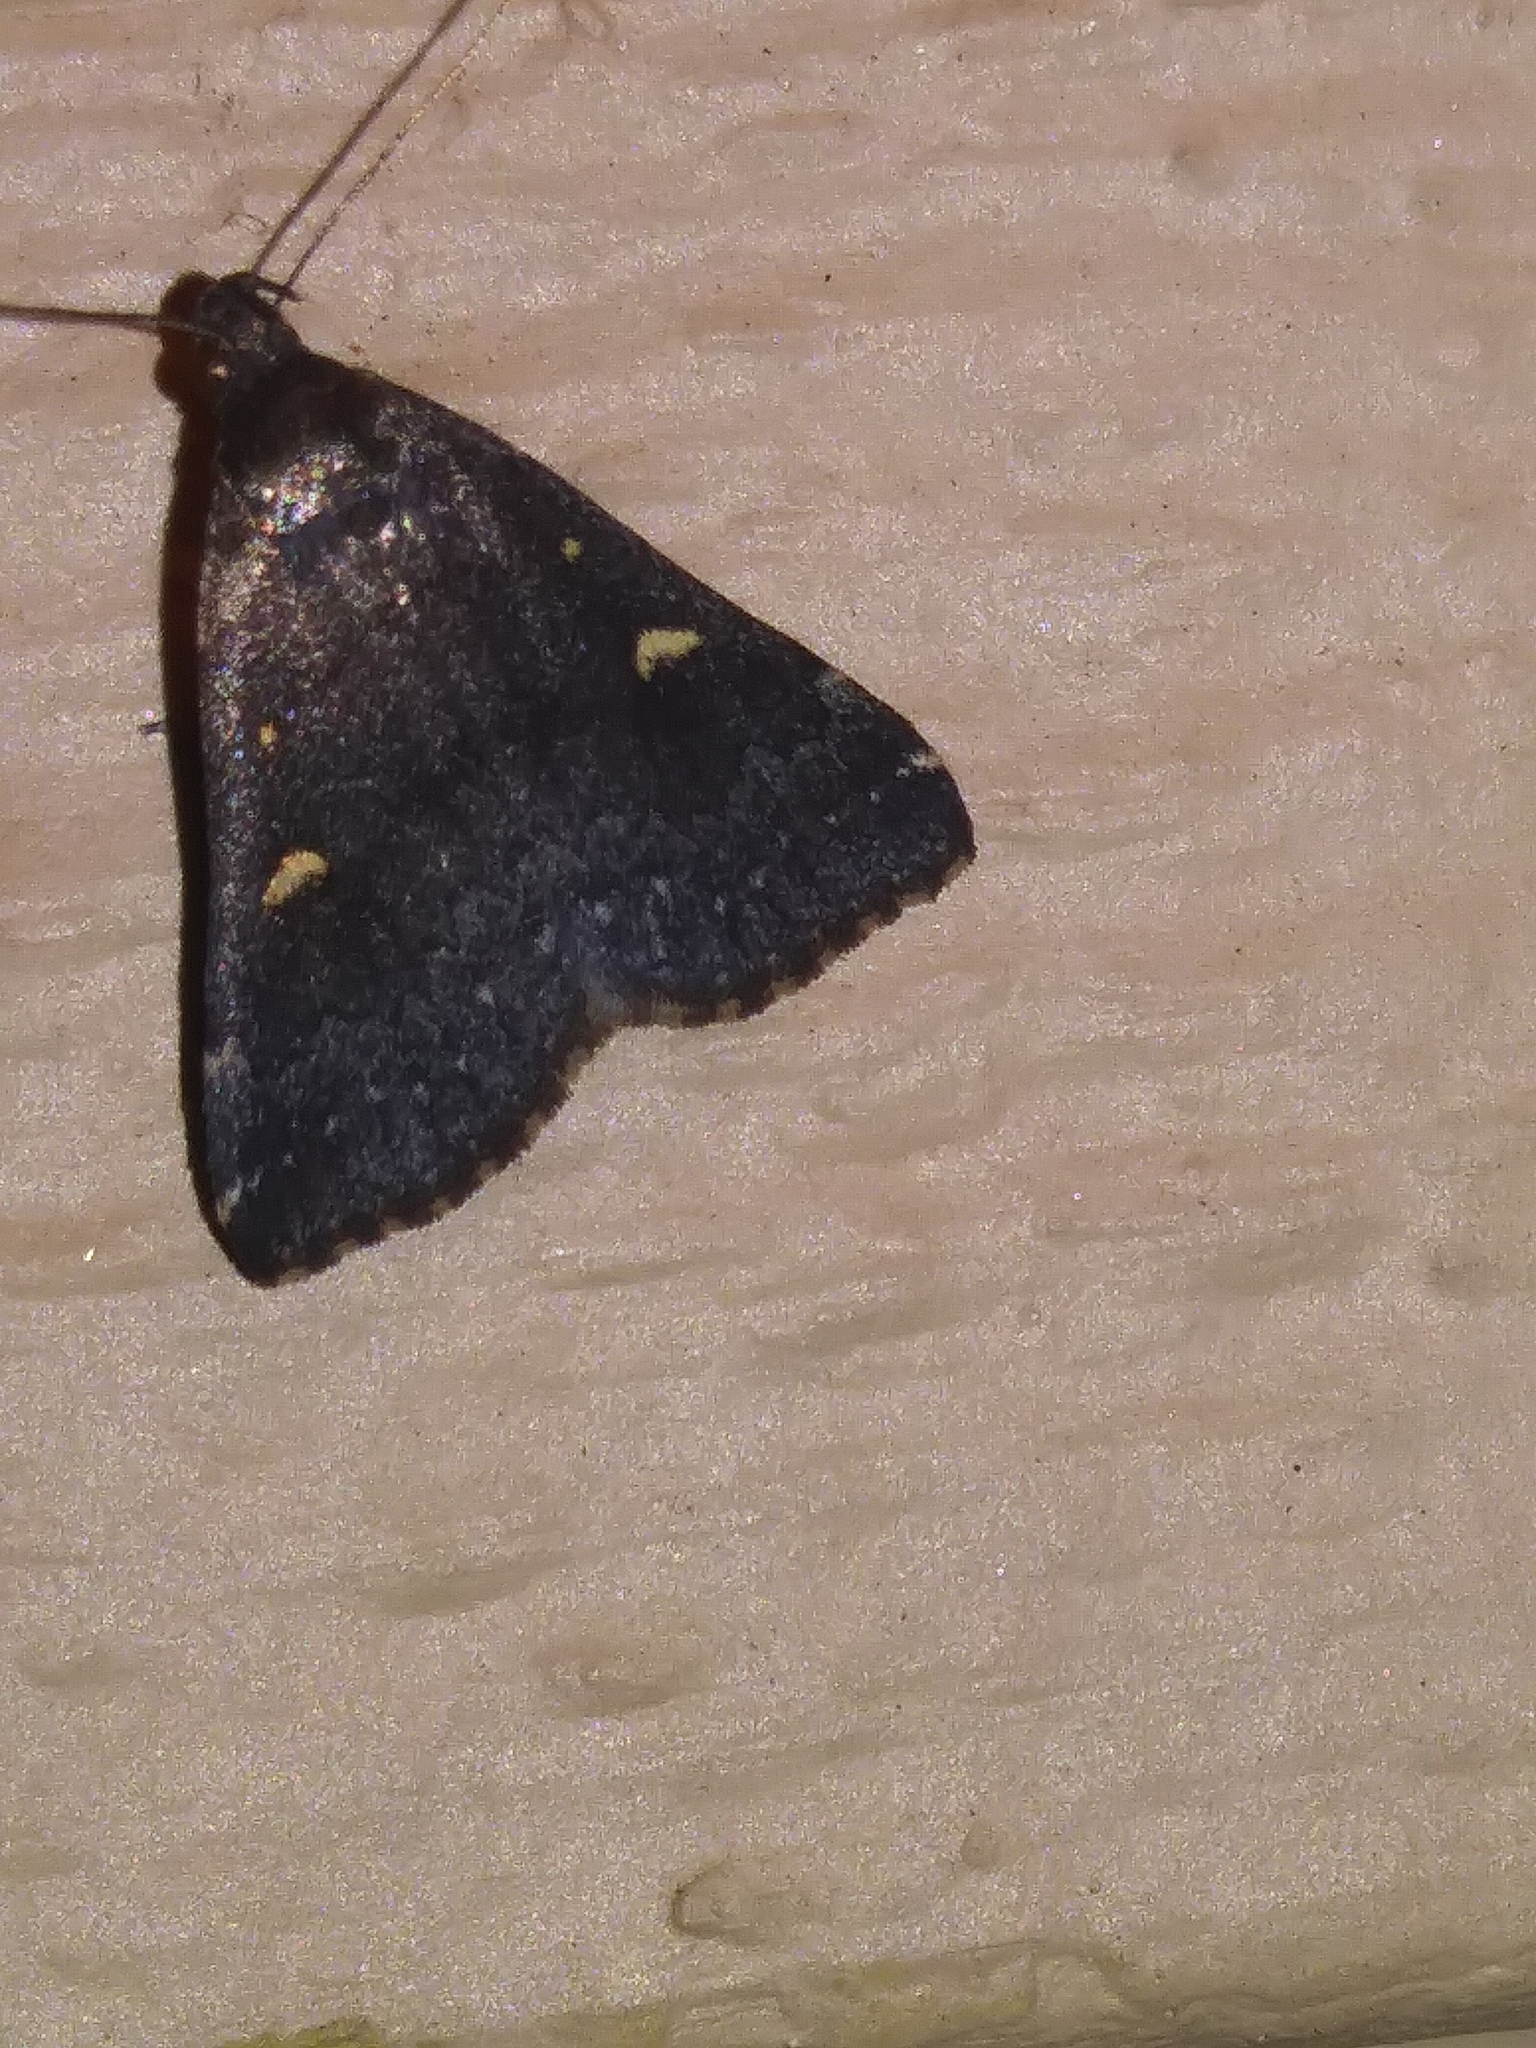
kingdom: Animalia
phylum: Arthropoda
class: Insecta
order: Lepidoptera
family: Erebidae
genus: Tetanolita
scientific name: Tetanolita mynesalis
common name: Smoky tetanolita moth
